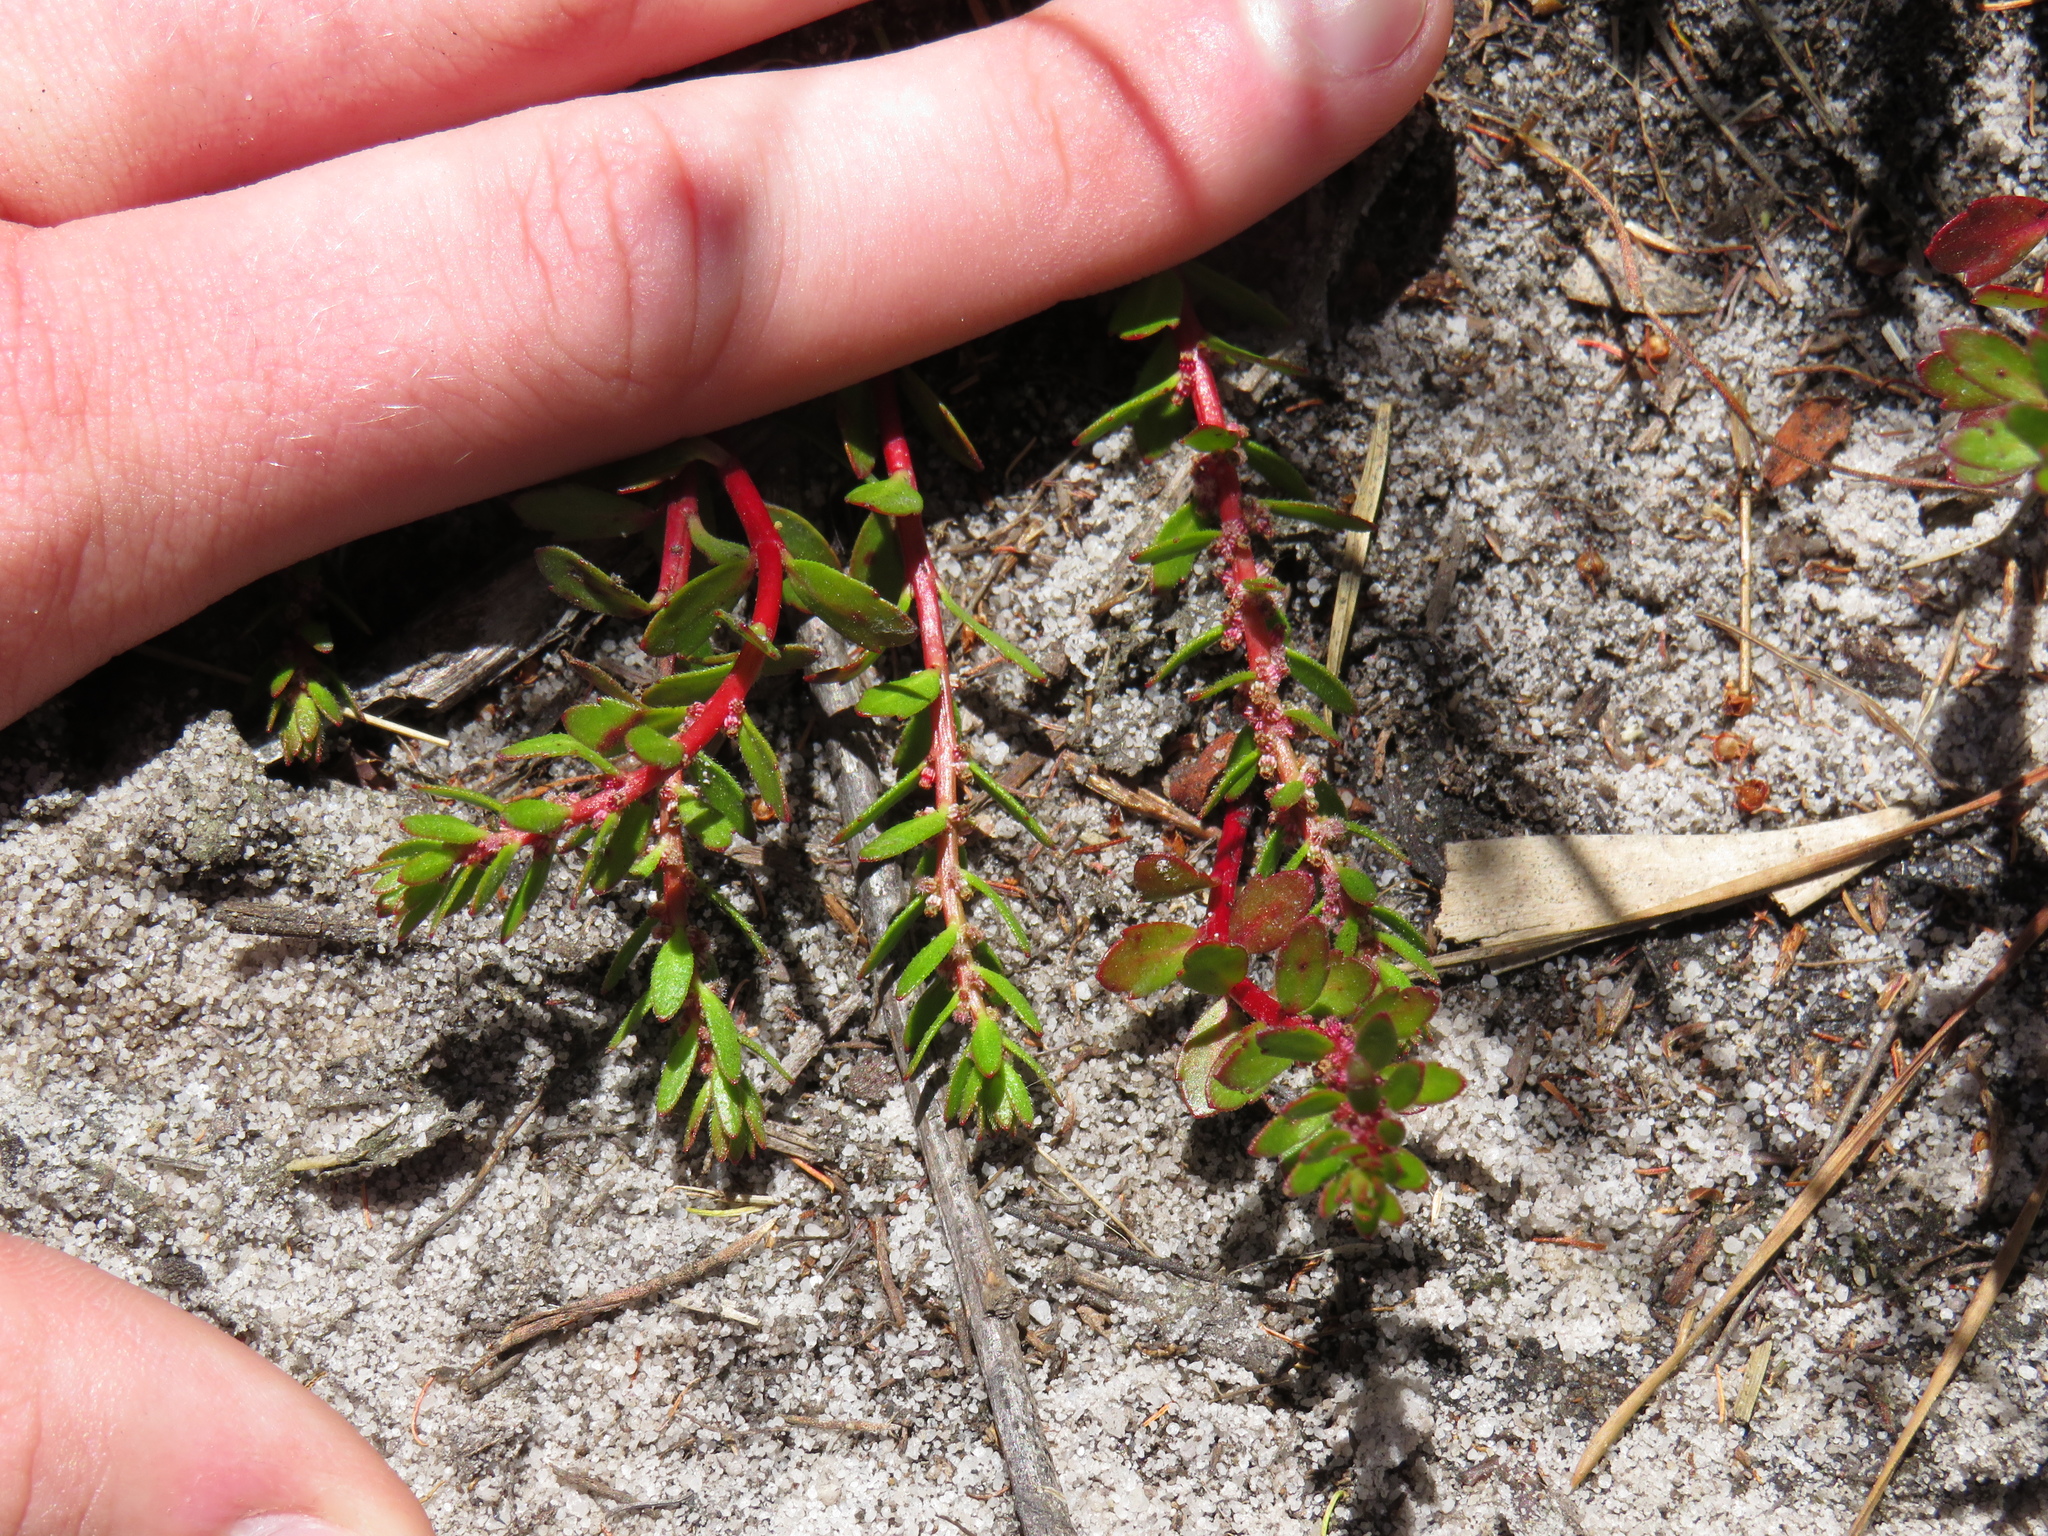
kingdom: Plantae
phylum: Tracheophyta
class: Magnoliopsida
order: Saxifragales
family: Haloragaceae
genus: Laurembergia
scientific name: Laurembergia repens
